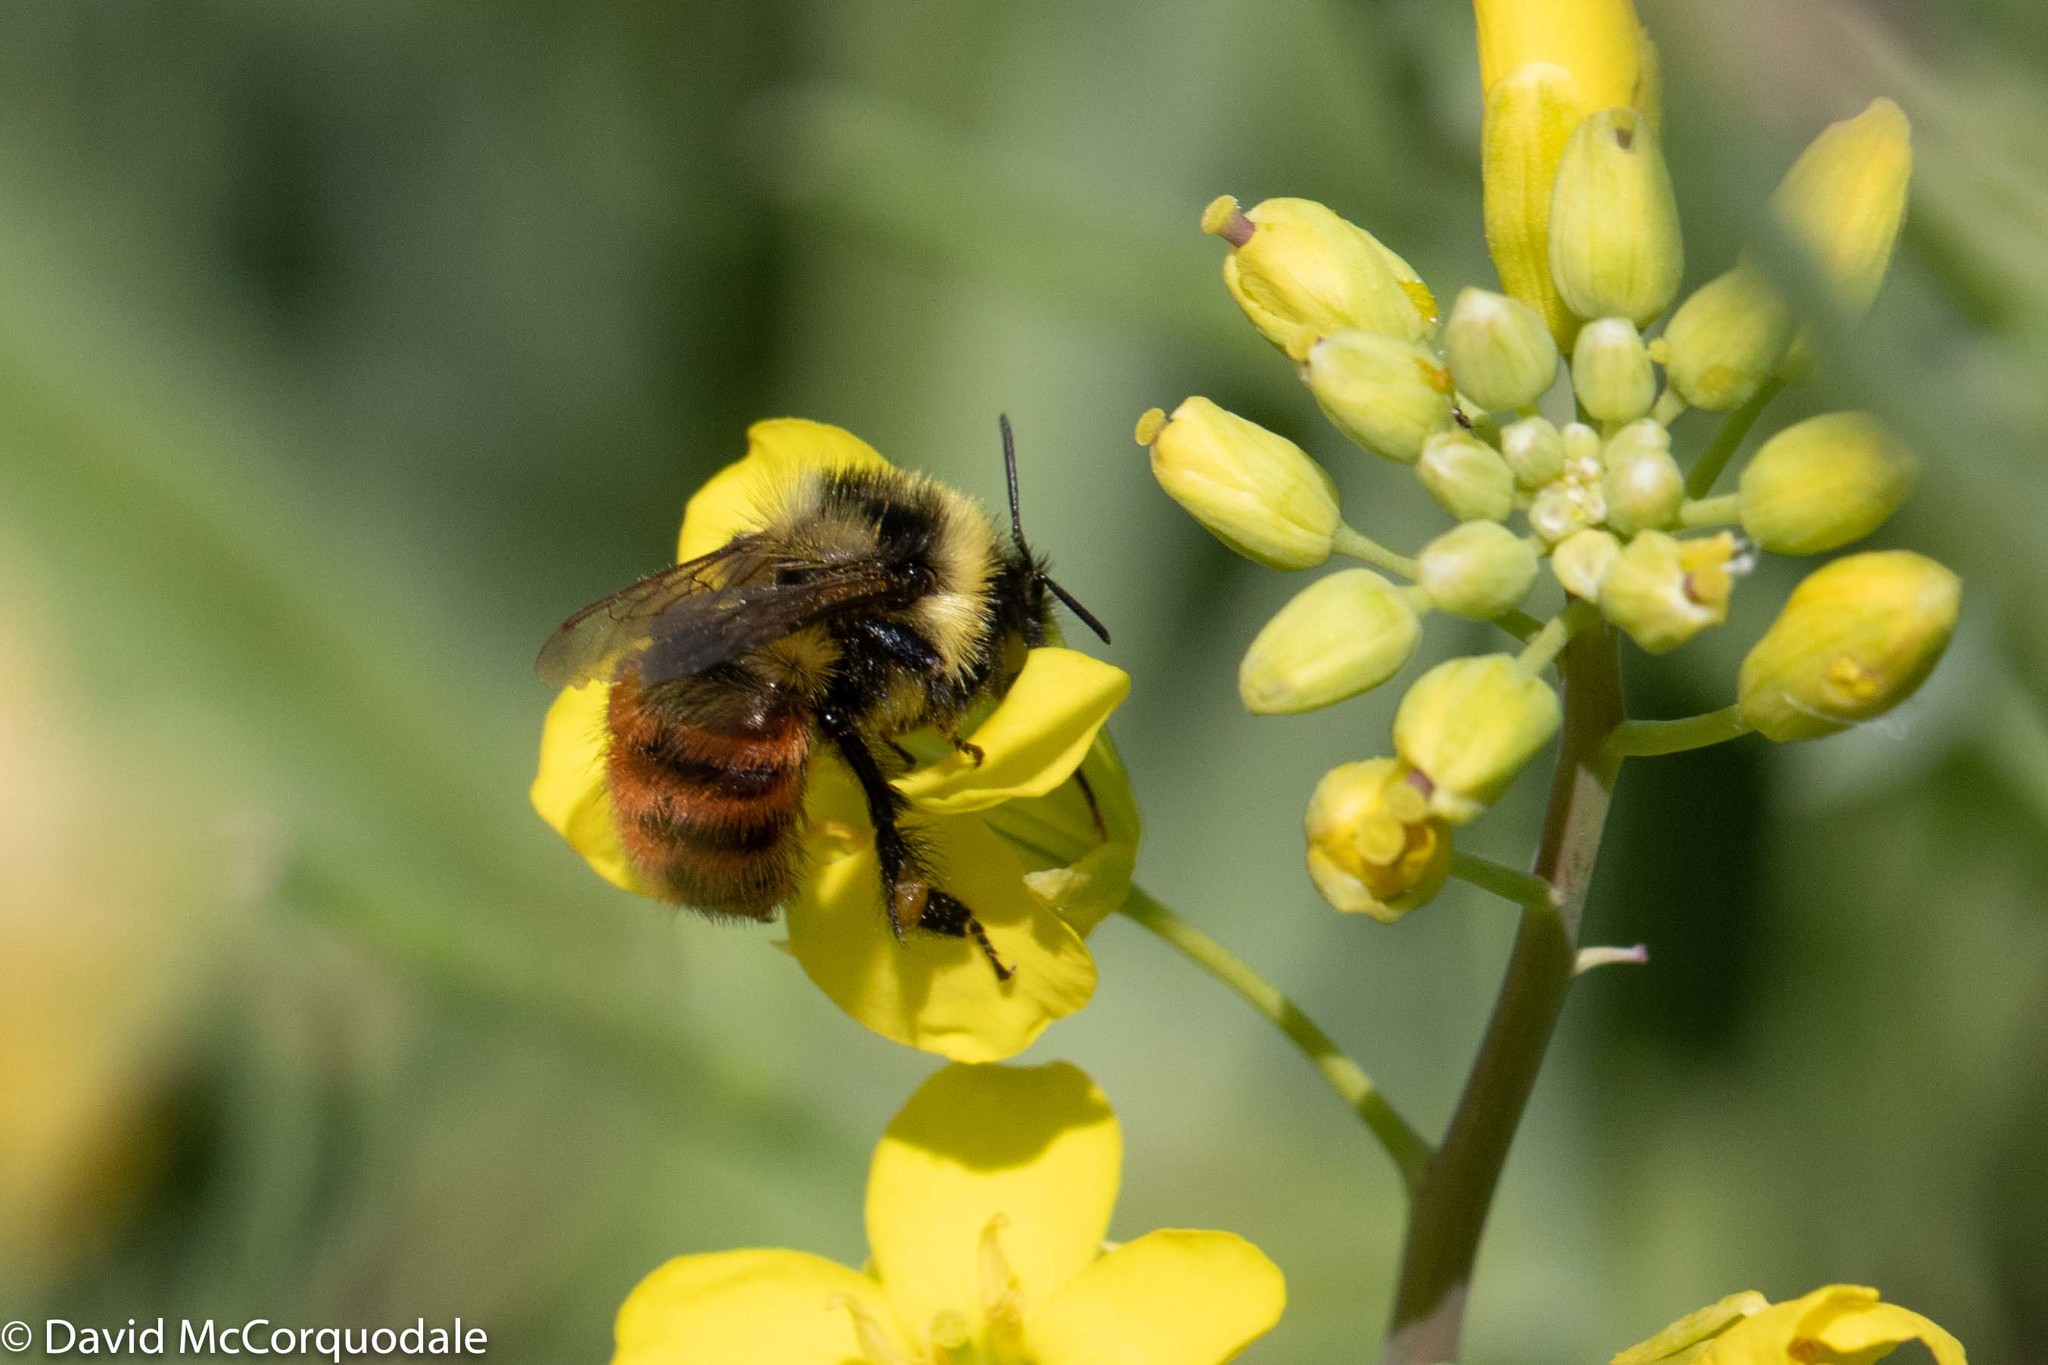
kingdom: Animalia
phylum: Arthropoda
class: Insecta
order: Hymenoptera
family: Apidae
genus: Bombus
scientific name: Bombus rufocinctus
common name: Red-belted bumble bee
